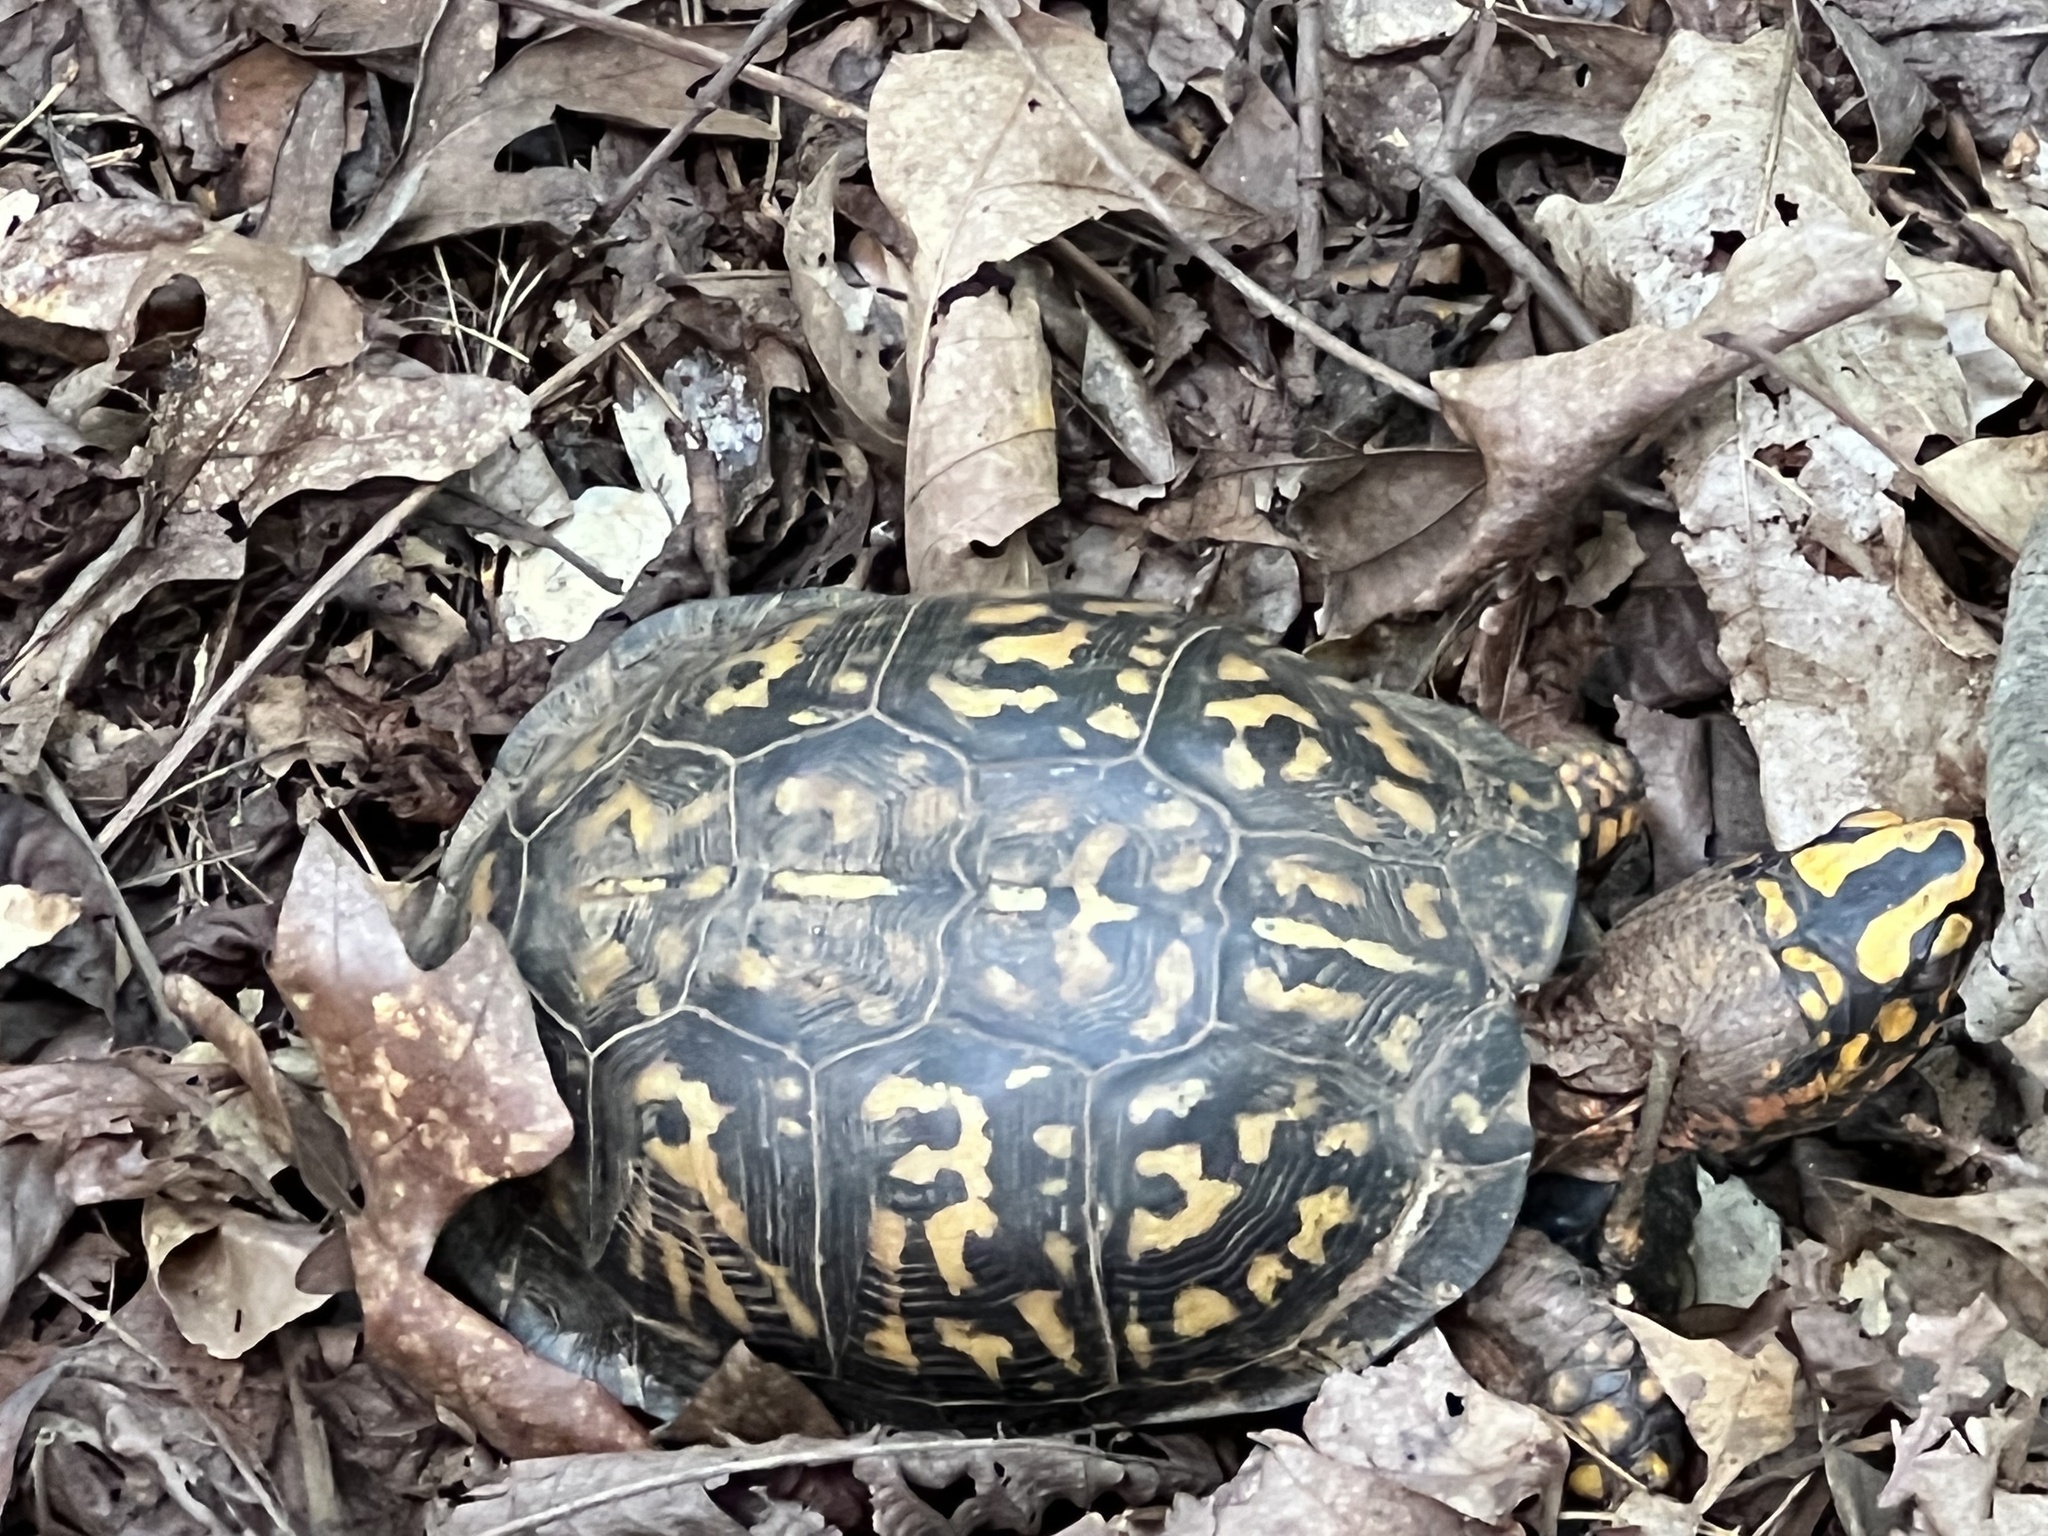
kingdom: Animalia
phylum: Chordata
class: Testudines
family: Emydidae
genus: Terrapene
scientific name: Terrapene carolina
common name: Common box turtle
